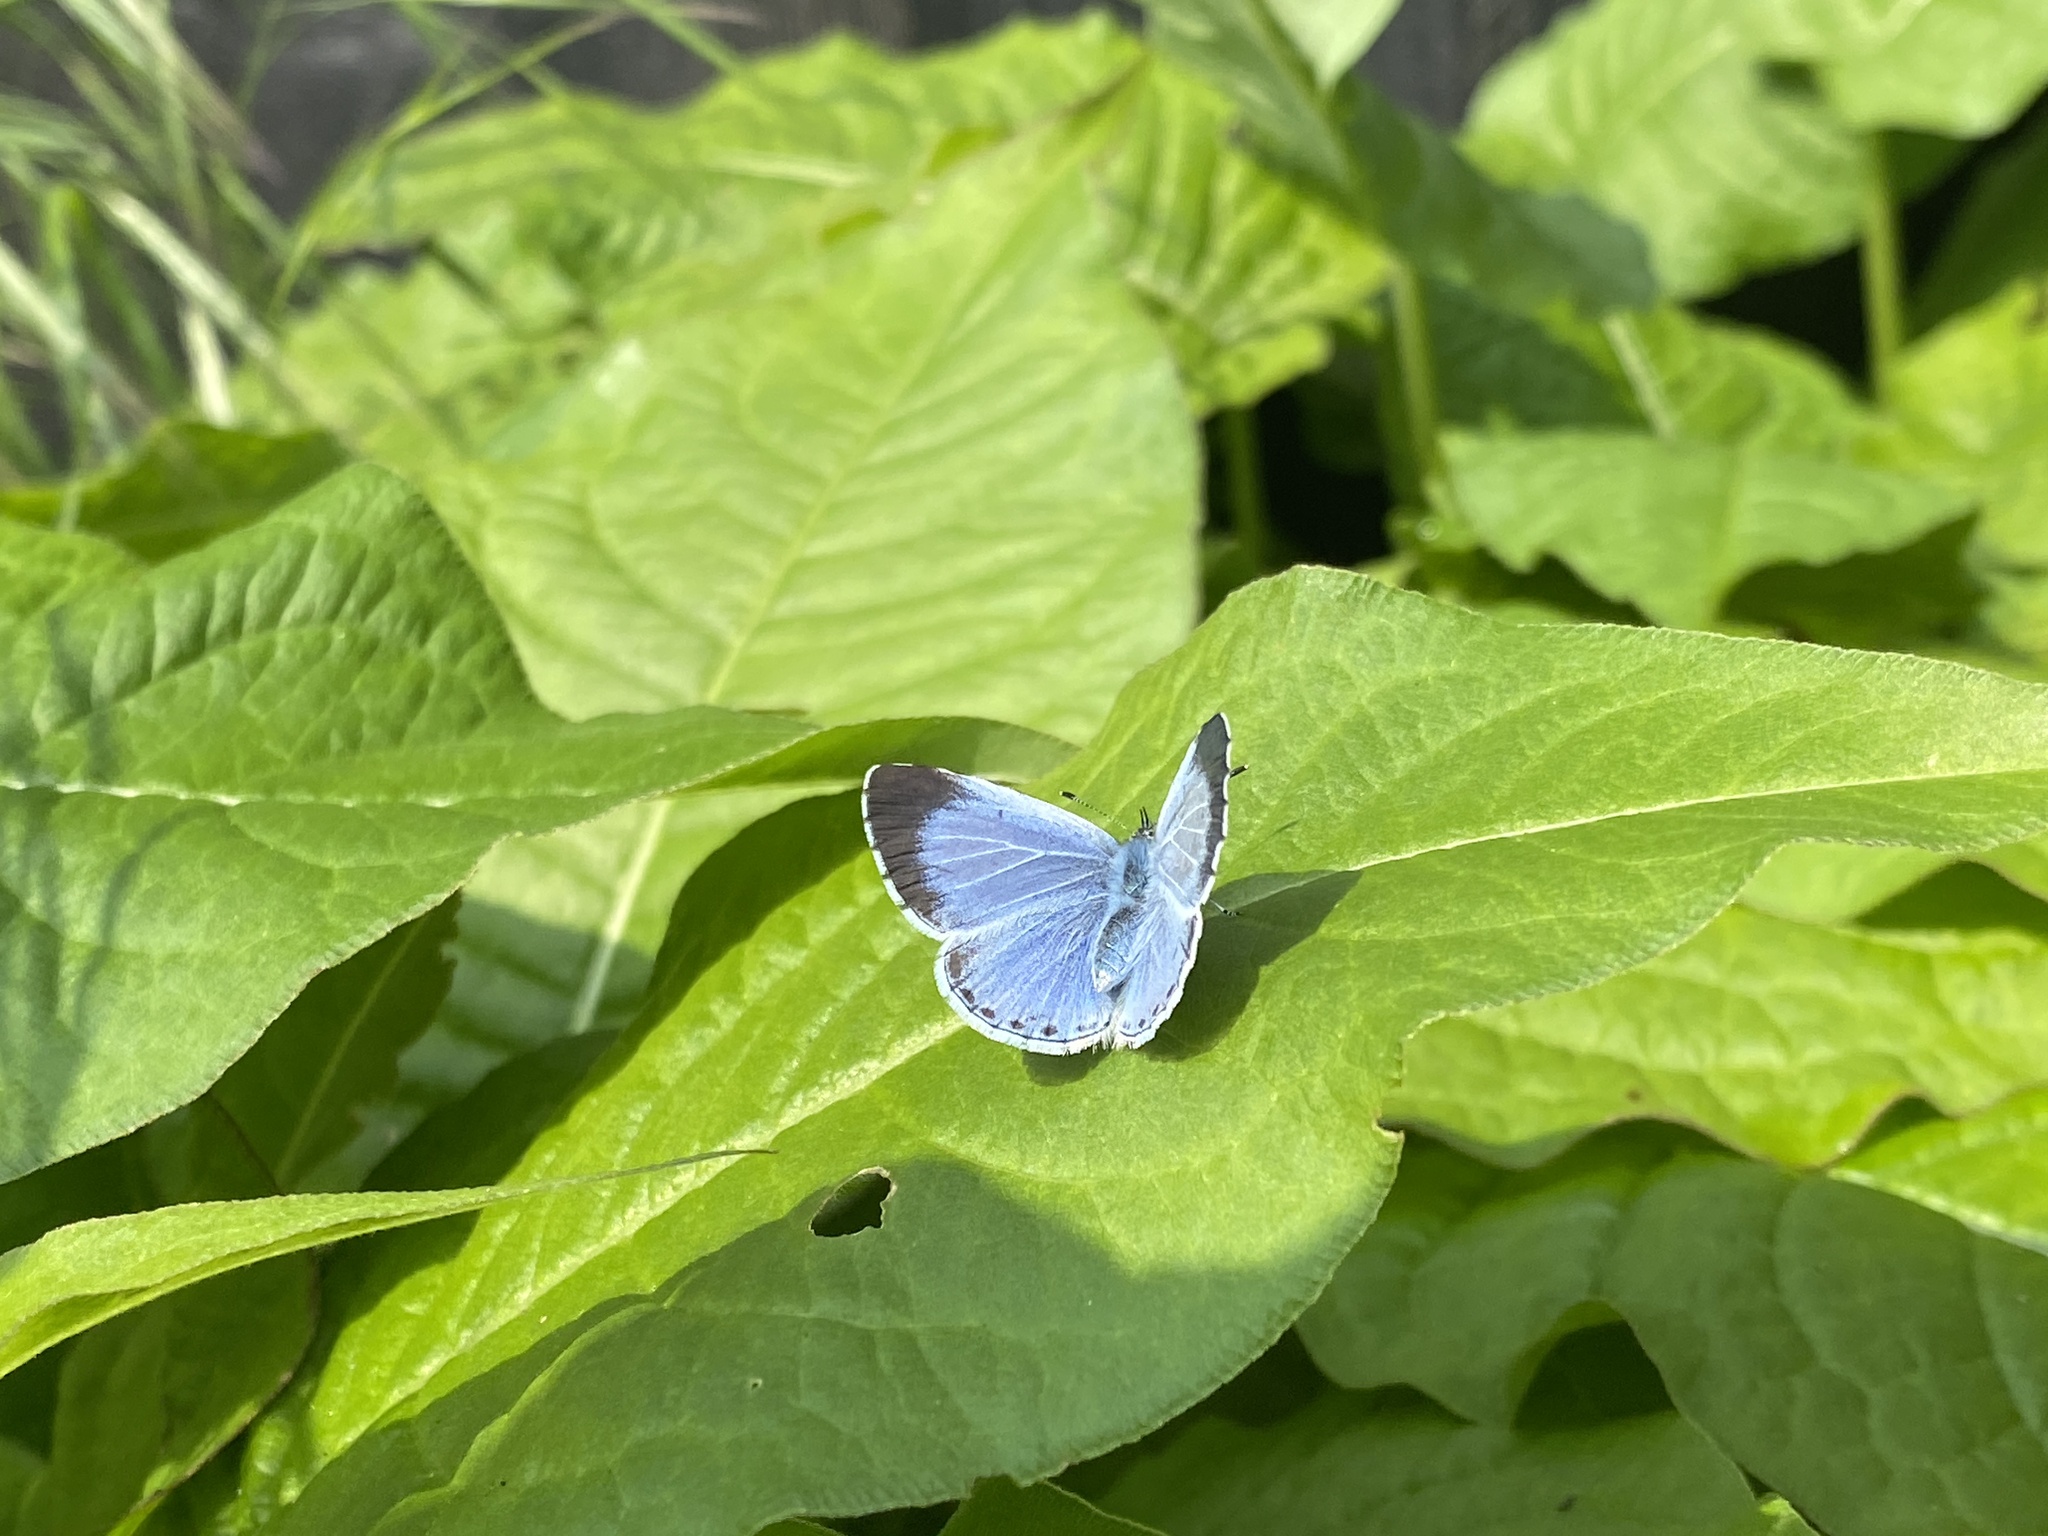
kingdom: Animalia
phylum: Arthropoda
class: Insecta
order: Lepidoptera
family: Lycaenidae
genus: Celastrina
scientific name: Celastrina argiolus
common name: Holly blue
